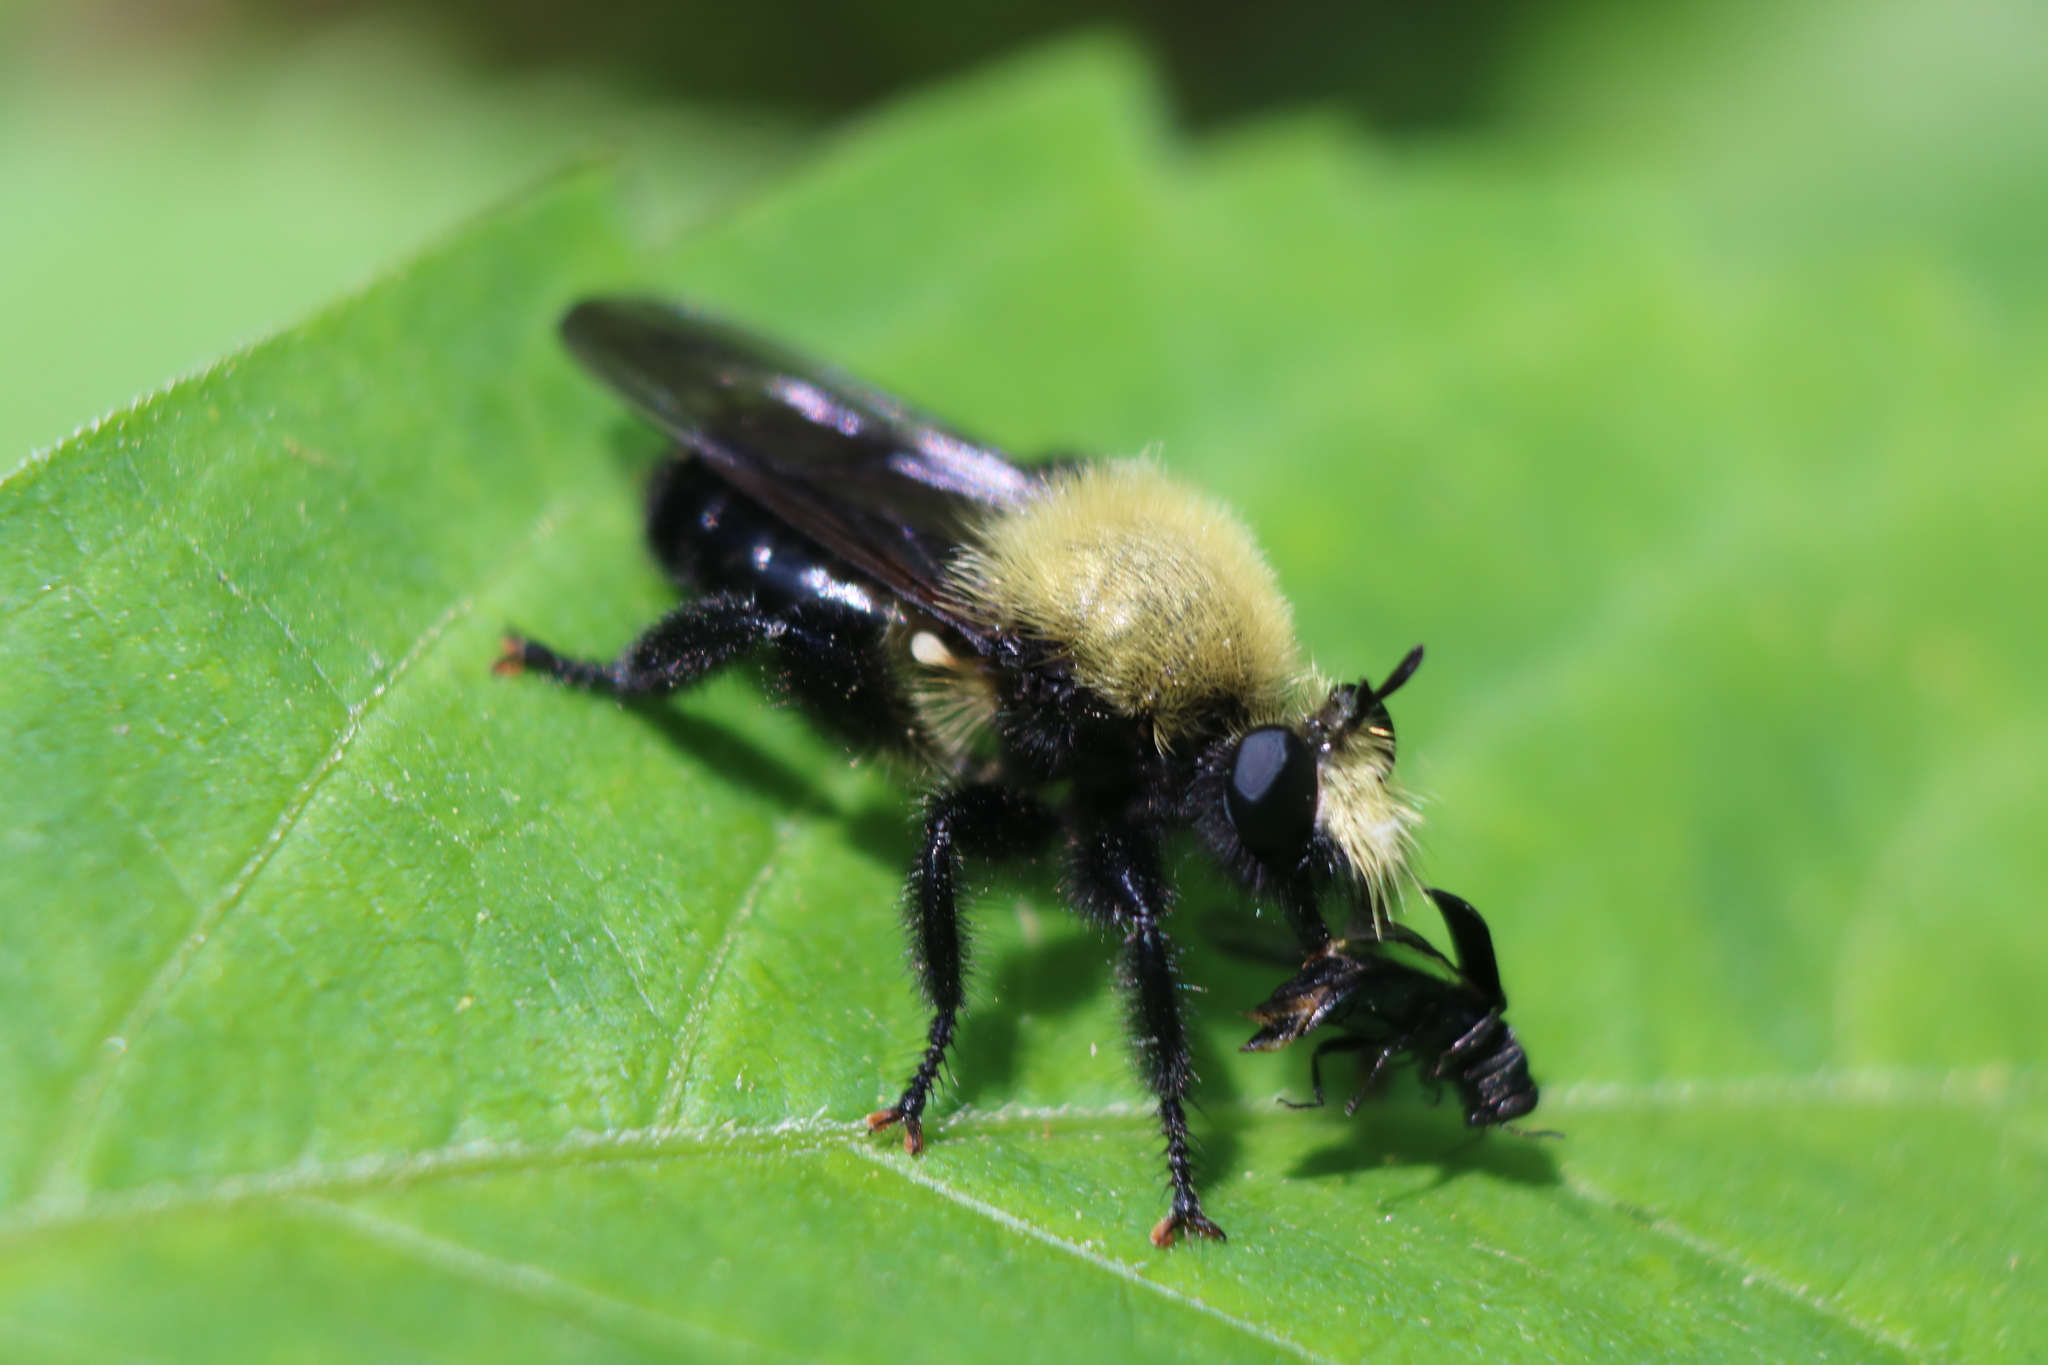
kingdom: Animalia
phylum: Arthropoda
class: Insecta
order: Diptera
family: Asilidae
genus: Laphria
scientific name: Laphria flavicollis
